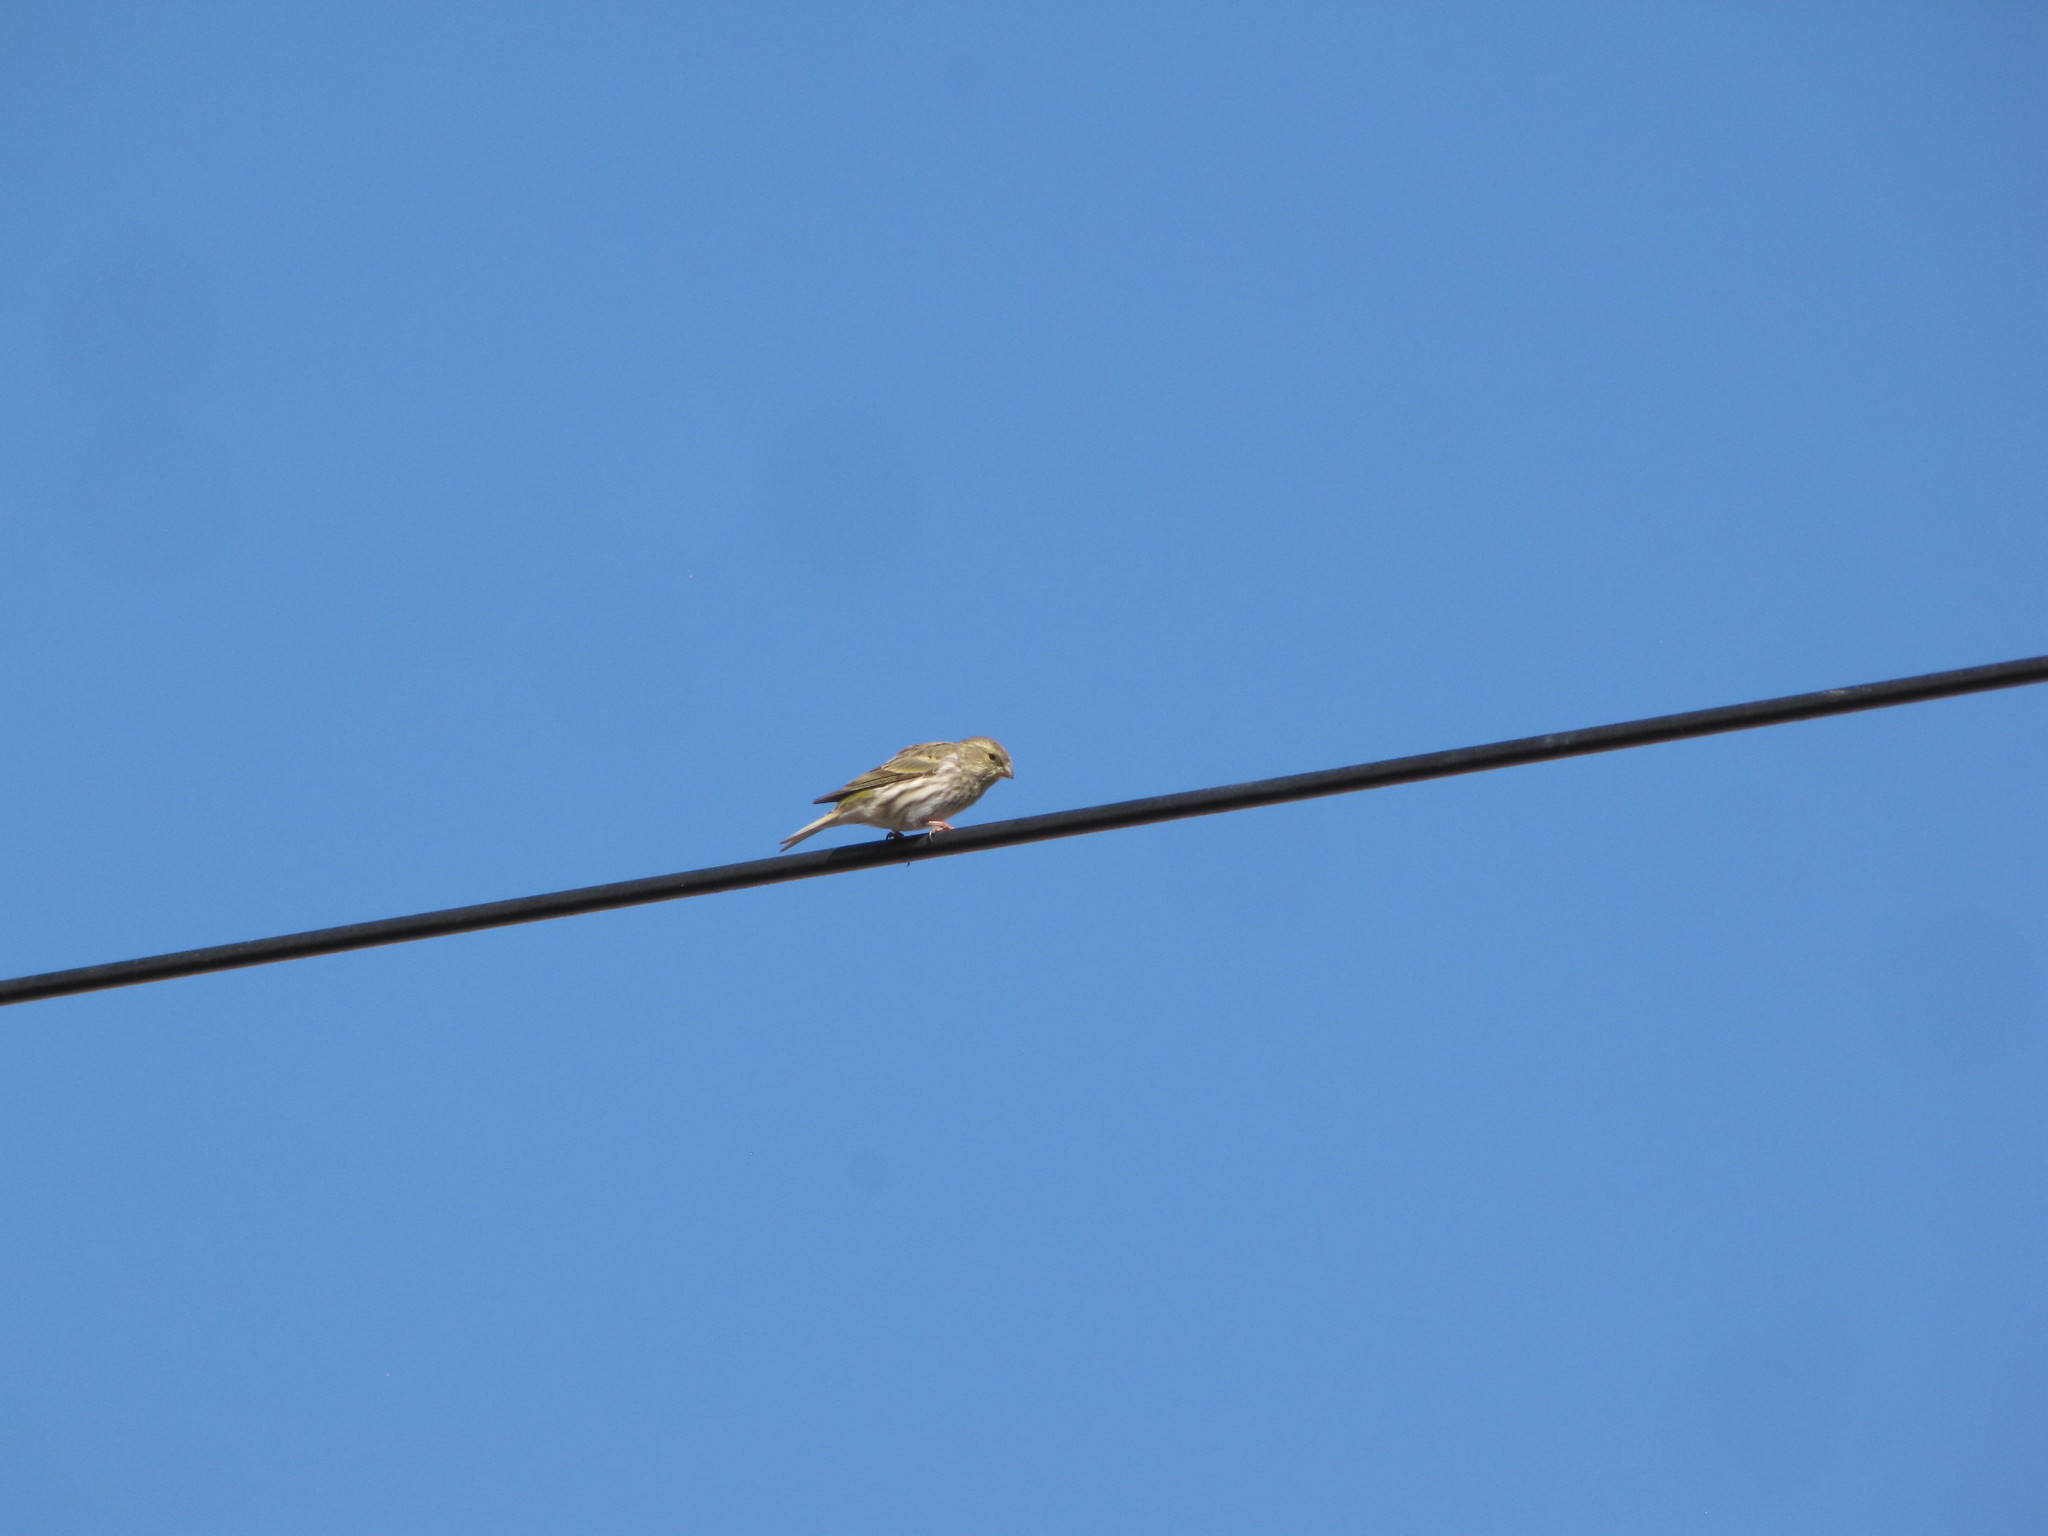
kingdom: Animalia
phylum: Chordata
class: Aves
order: Passeriformes
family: Fringillidae
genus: Serinus
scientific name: Serinus serinus
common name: European serin
